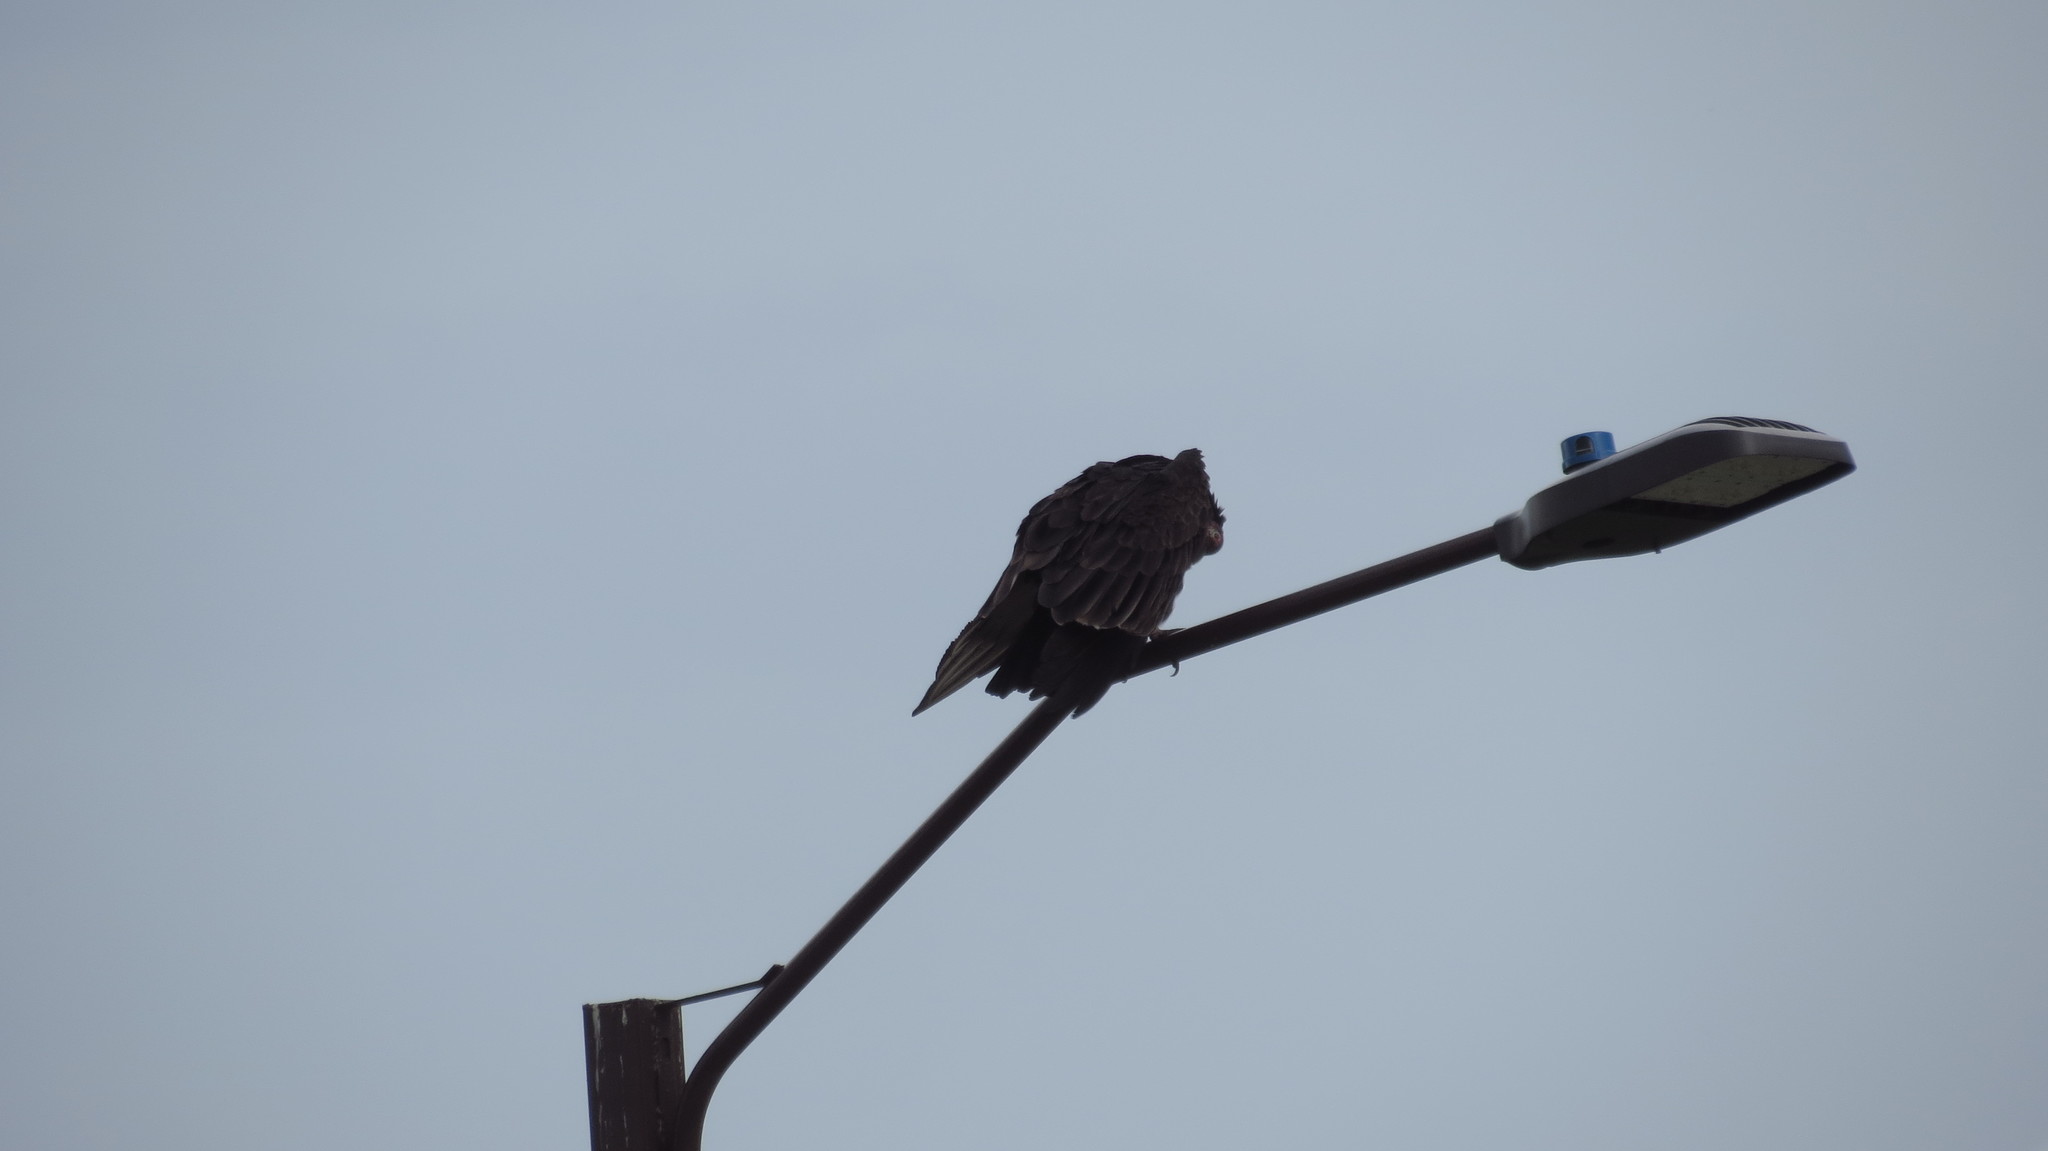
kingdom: Animalia
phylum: Chordata
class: Aves
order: Accipitriformes
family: Cathartidae
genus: Cathartes
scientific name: Cathartes aura
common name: Turkey vulture
